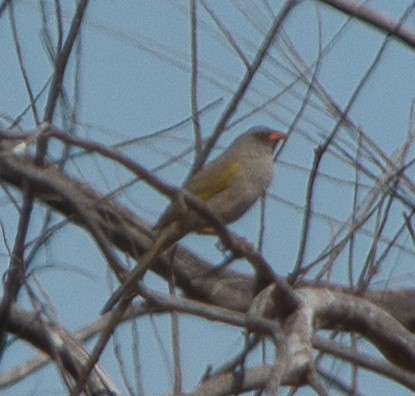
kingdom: Animalia
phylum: Chordata
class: Aves
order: Passeriformes
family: Thraupidae
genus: Embernagra
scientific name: Embernagra platensis
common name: Pampa finch
